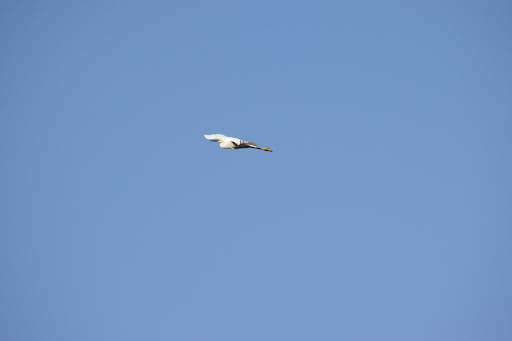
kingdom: Animalia
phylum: Chordata
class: Aves
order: Pelecaniformes
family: Ardeidae
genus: Egretta
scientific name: Egretta thula
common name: Snowy egret
